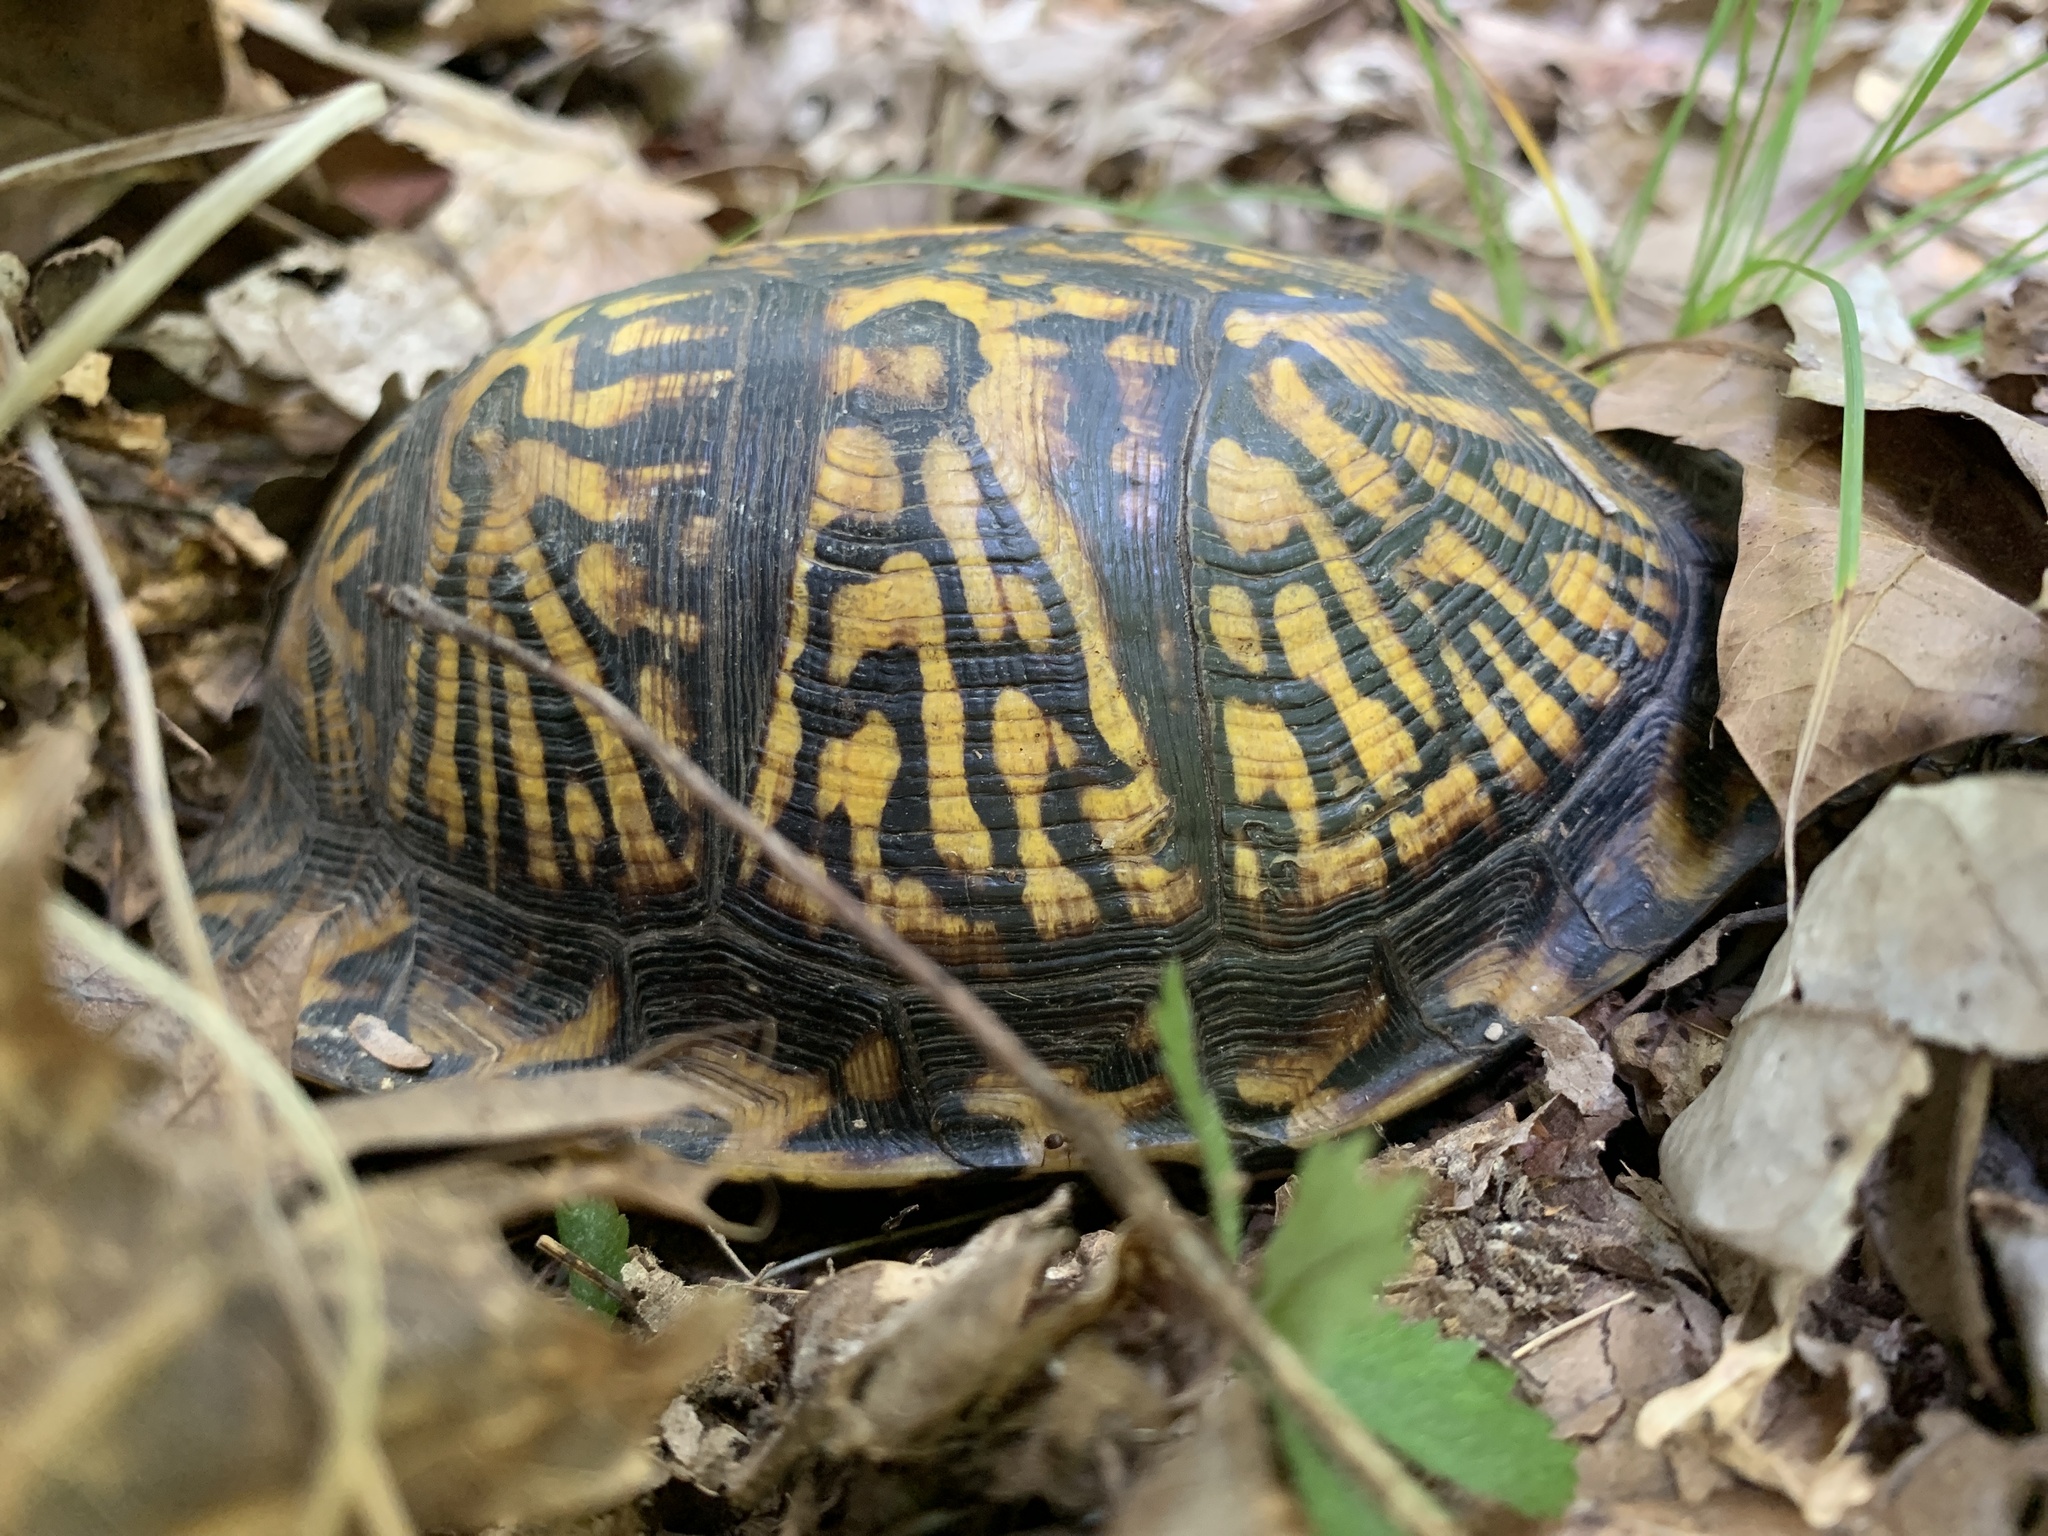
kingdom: Animalia
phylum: Chordata
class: Testudines
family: Emydidae
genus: Terrapene
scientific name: Terrapene carolina
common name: Common box turtle
